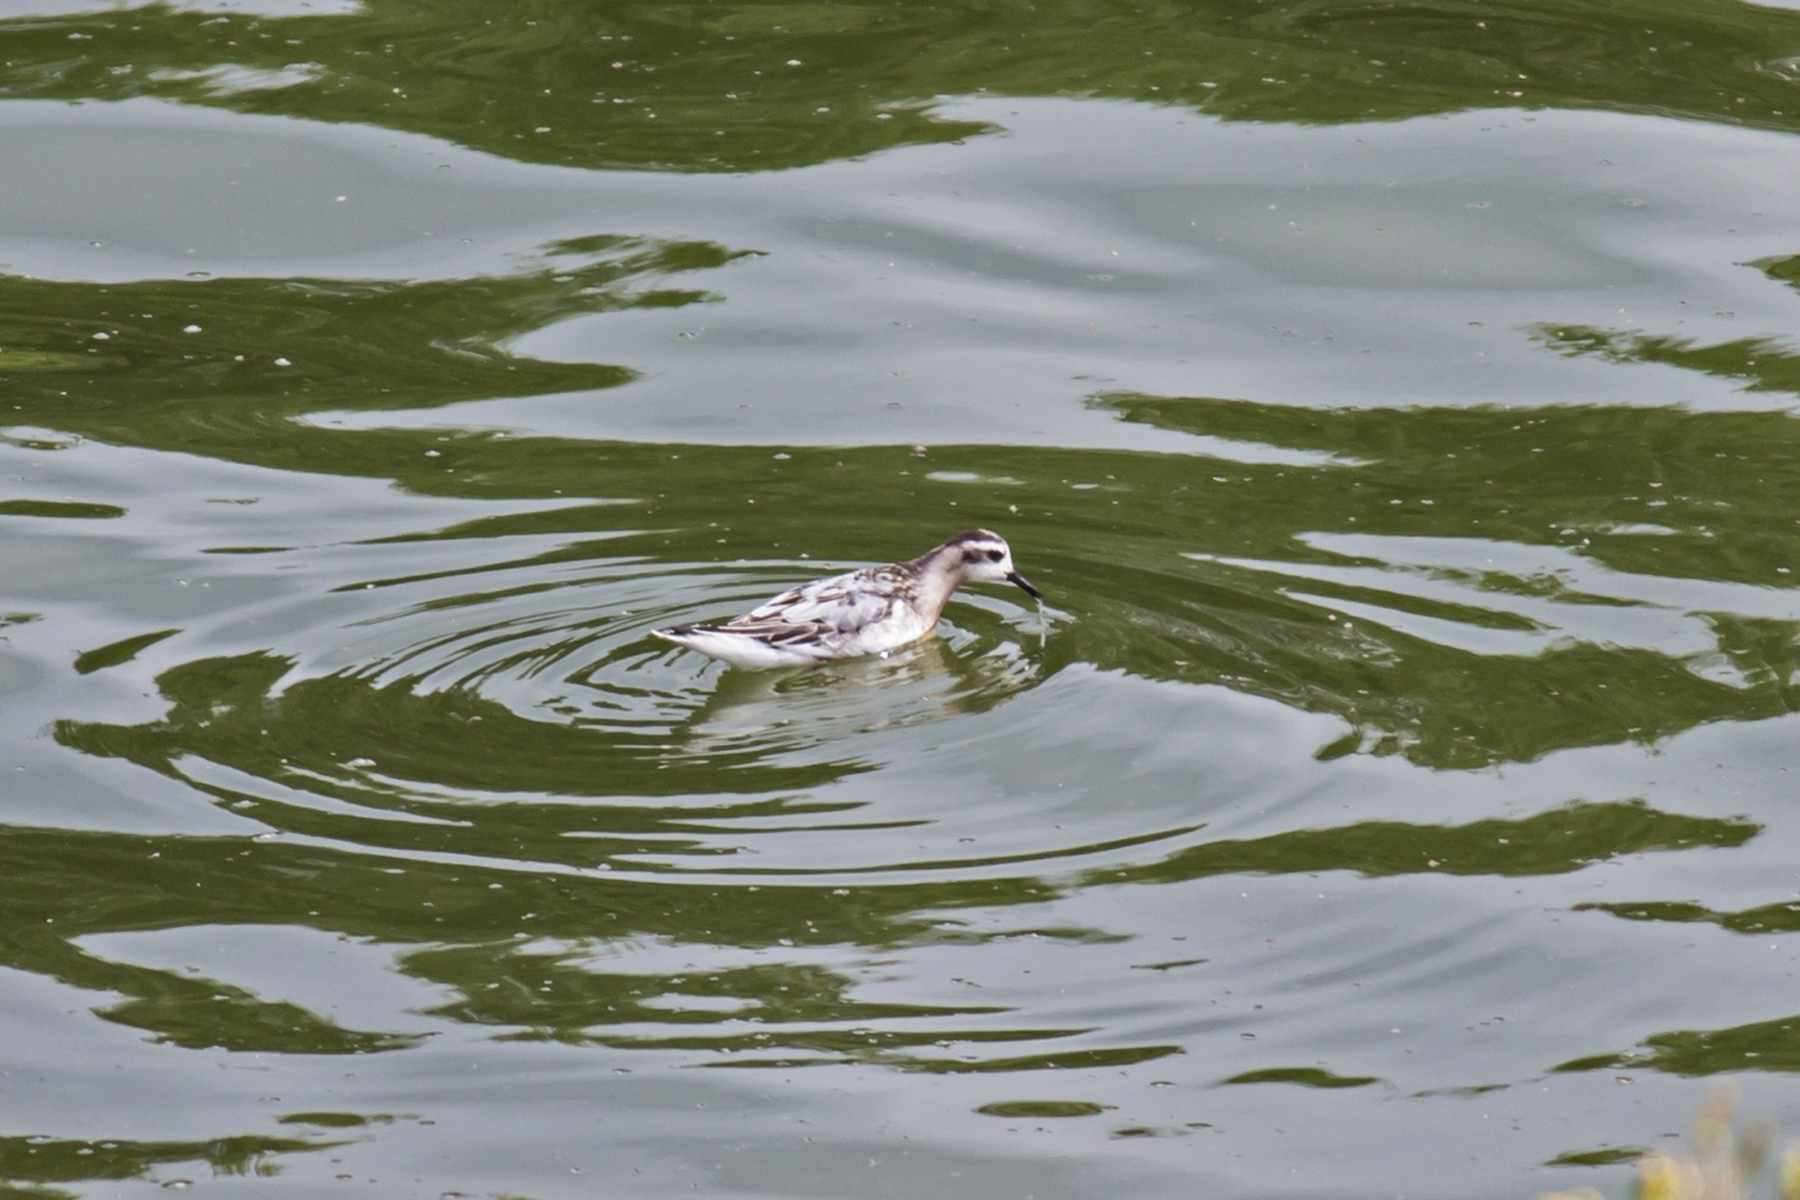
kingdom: Animalia
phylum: Chordata
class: Aves
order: Charadriiformes
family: Scolopacidae
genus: Phalaropus
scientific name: Phalaropus fulicarius
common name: Red phalarope
